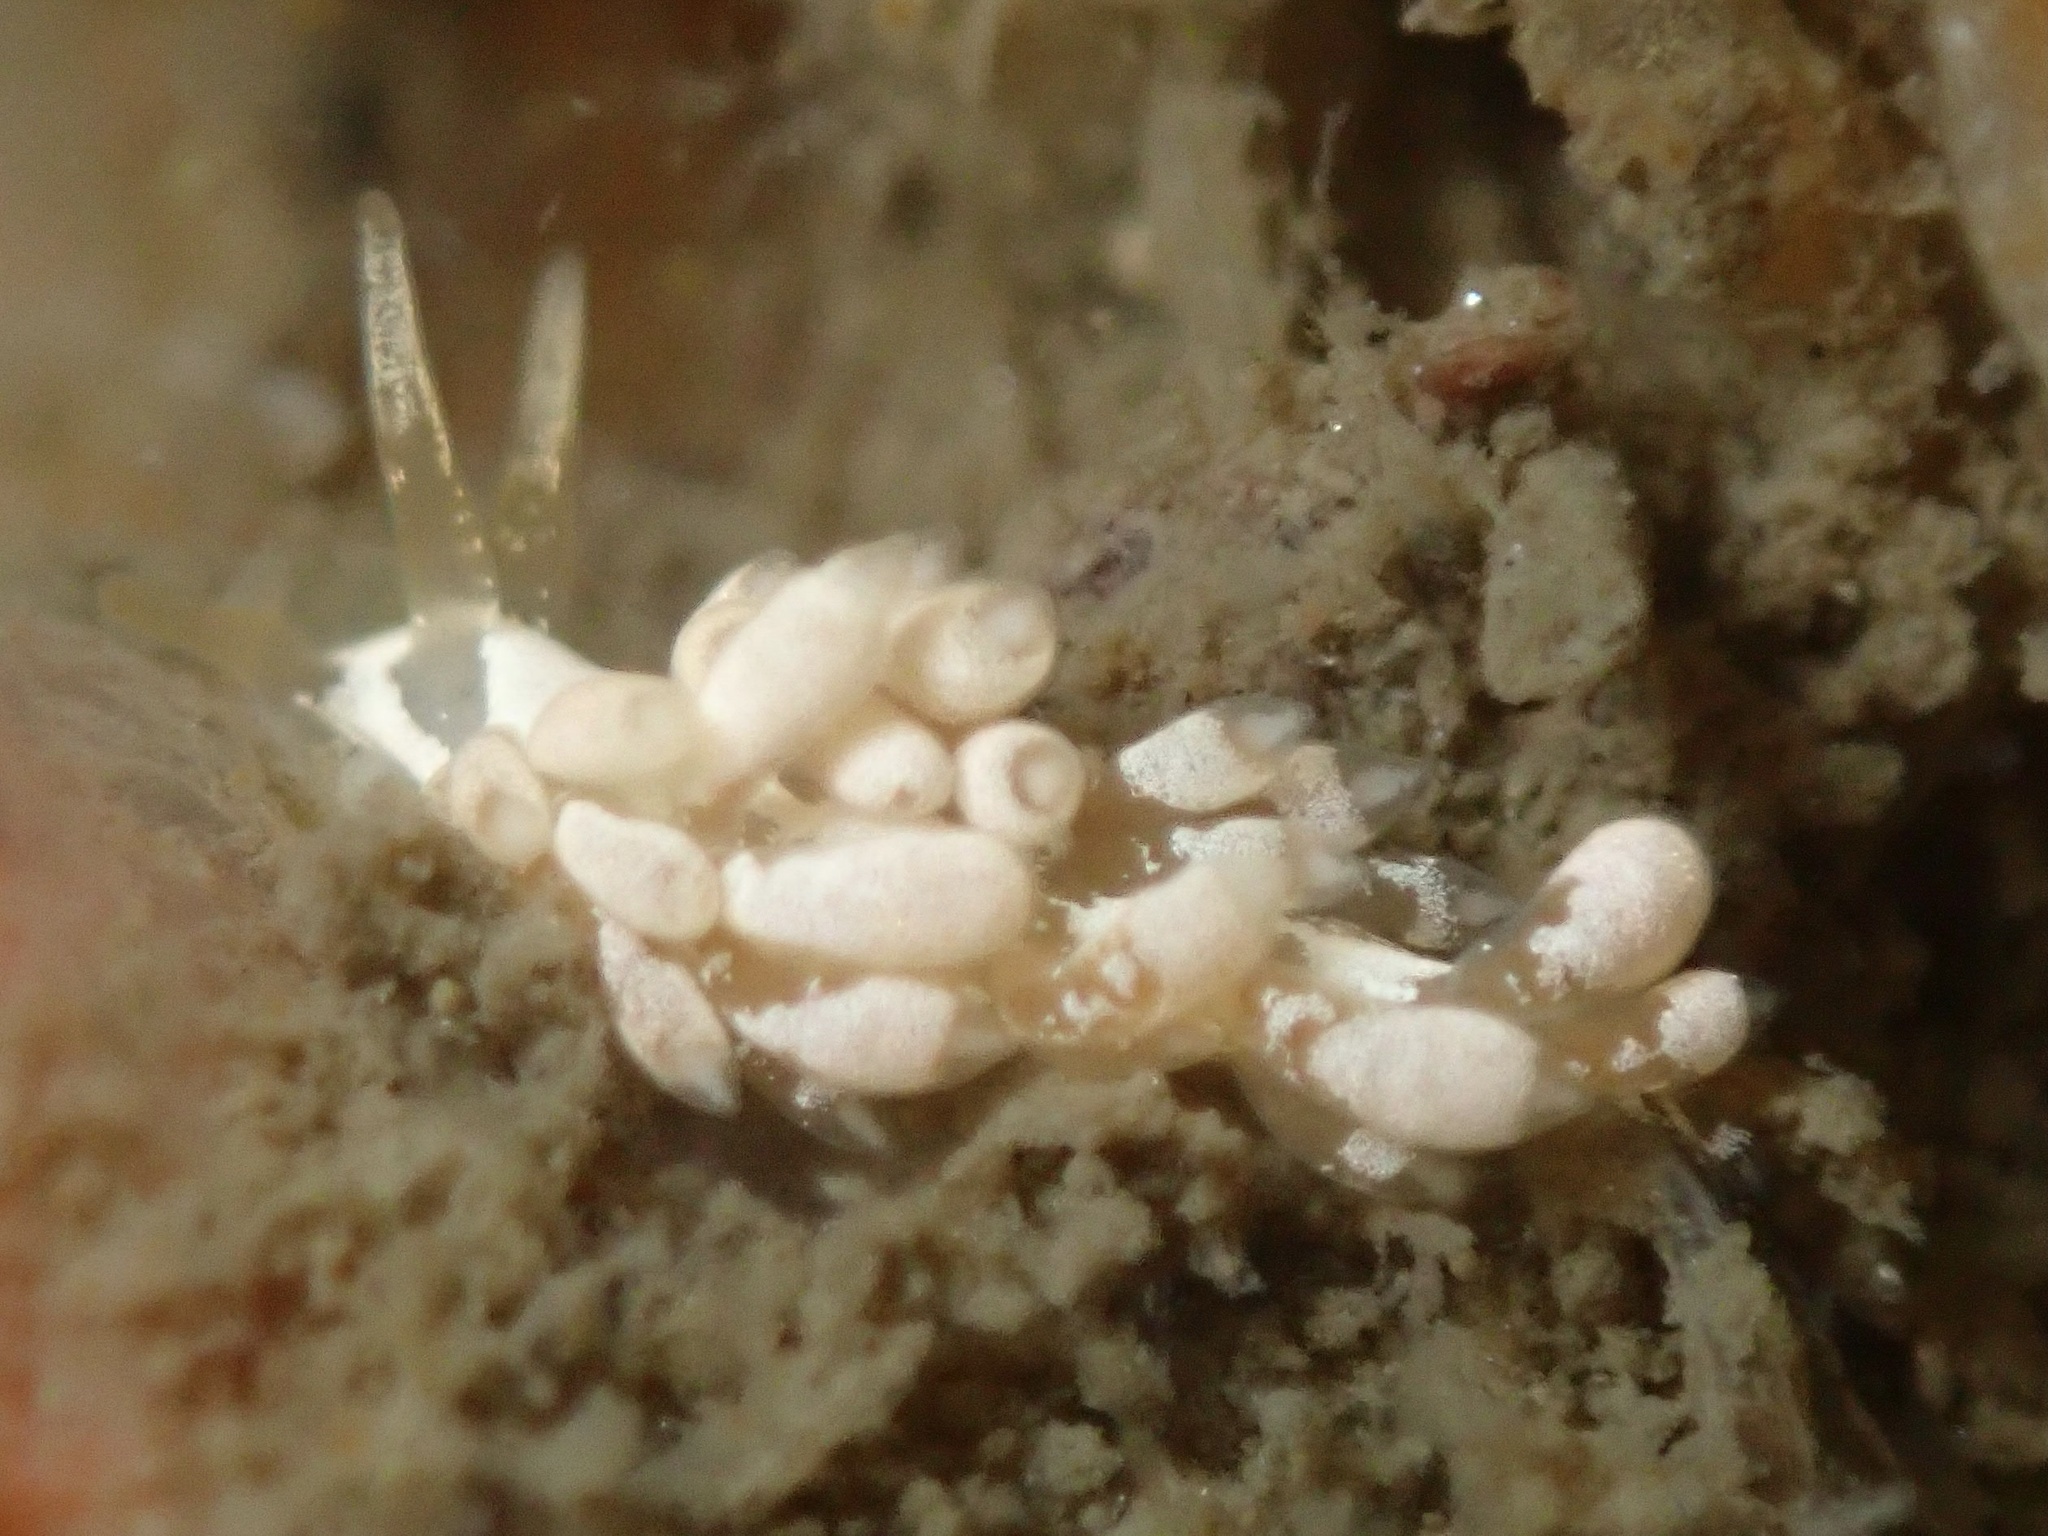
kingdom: Animalia
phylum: Mollusca
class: Gastropoda
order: Nudibranchia
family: Trinchesiidae
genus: Trinchesia
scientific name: Trinchesia albocrusta
